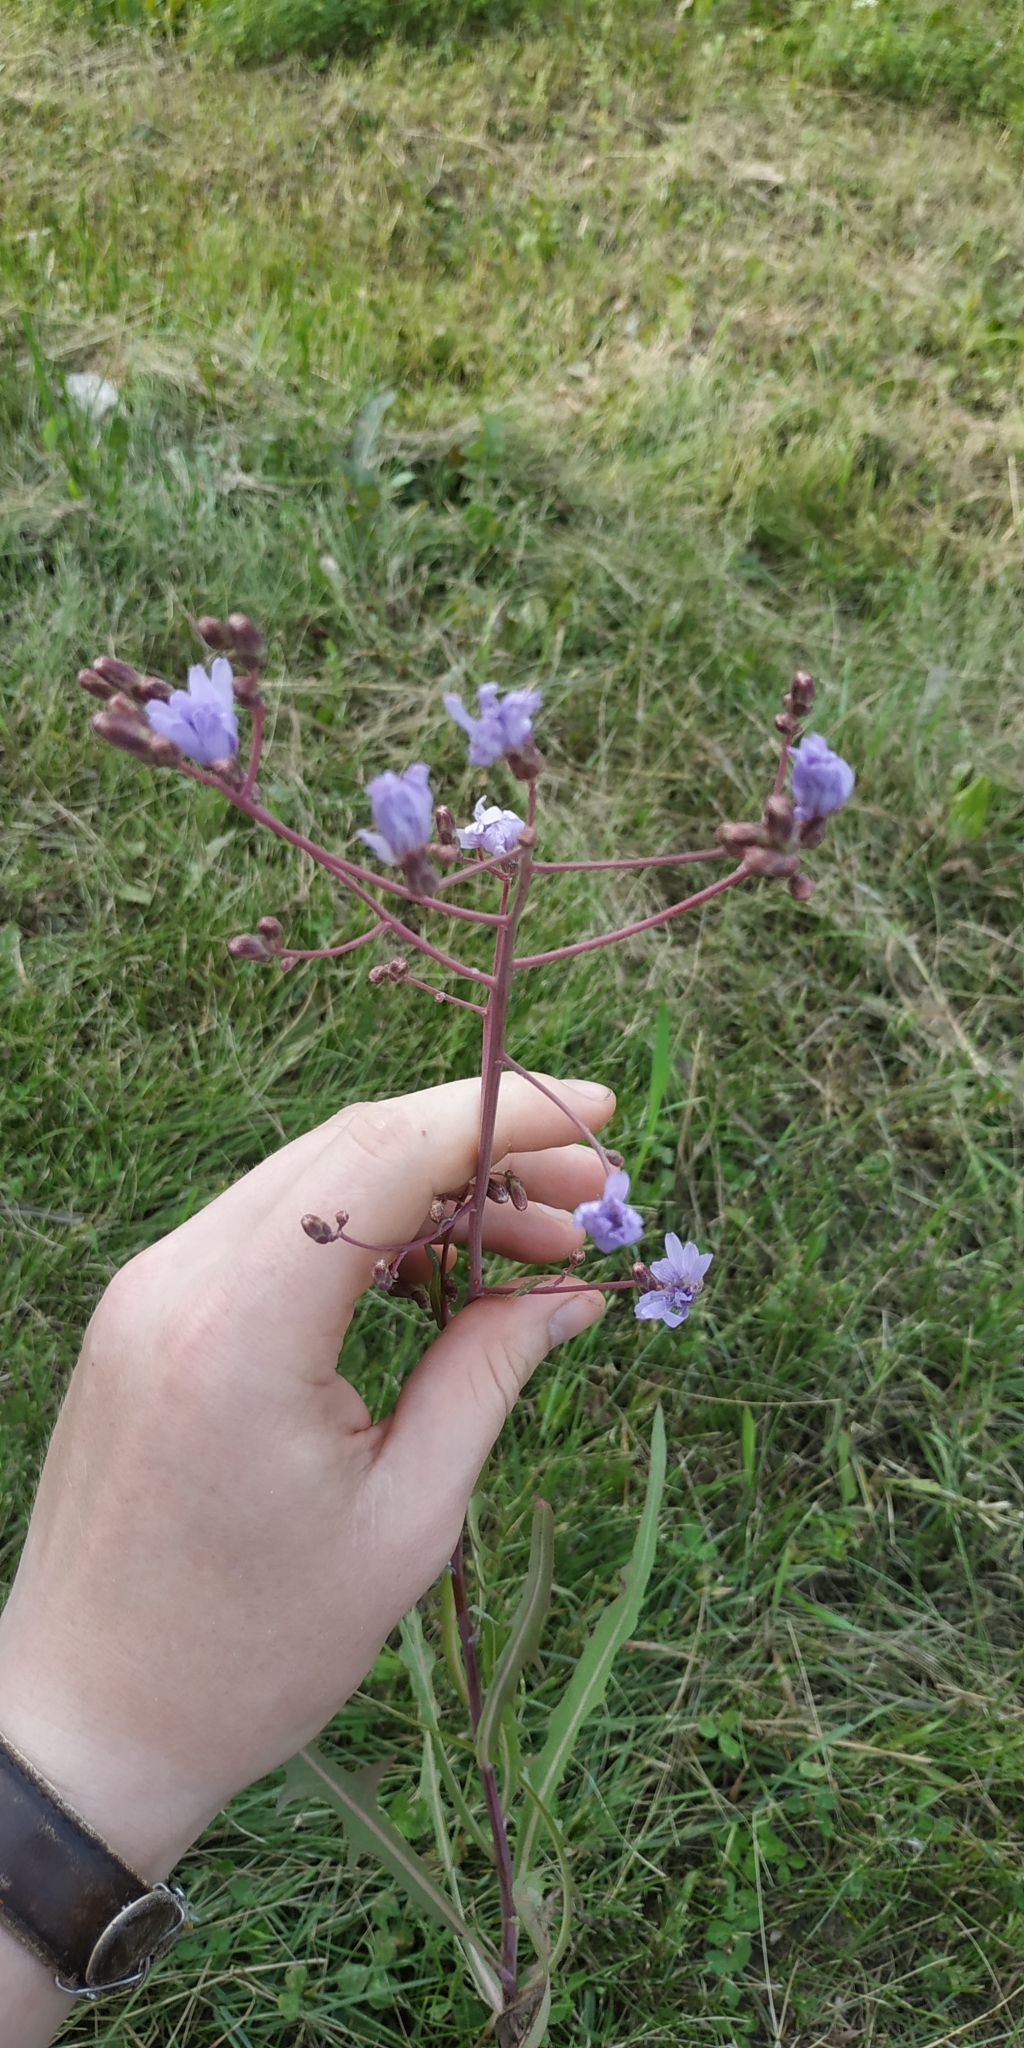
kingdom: Plantae
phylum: Tracheophyta
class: Magnoliopsida
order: Asterales
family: Asteraceae
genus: Lactuca
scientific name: Lactuca tatarica
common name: Blue lettuce
